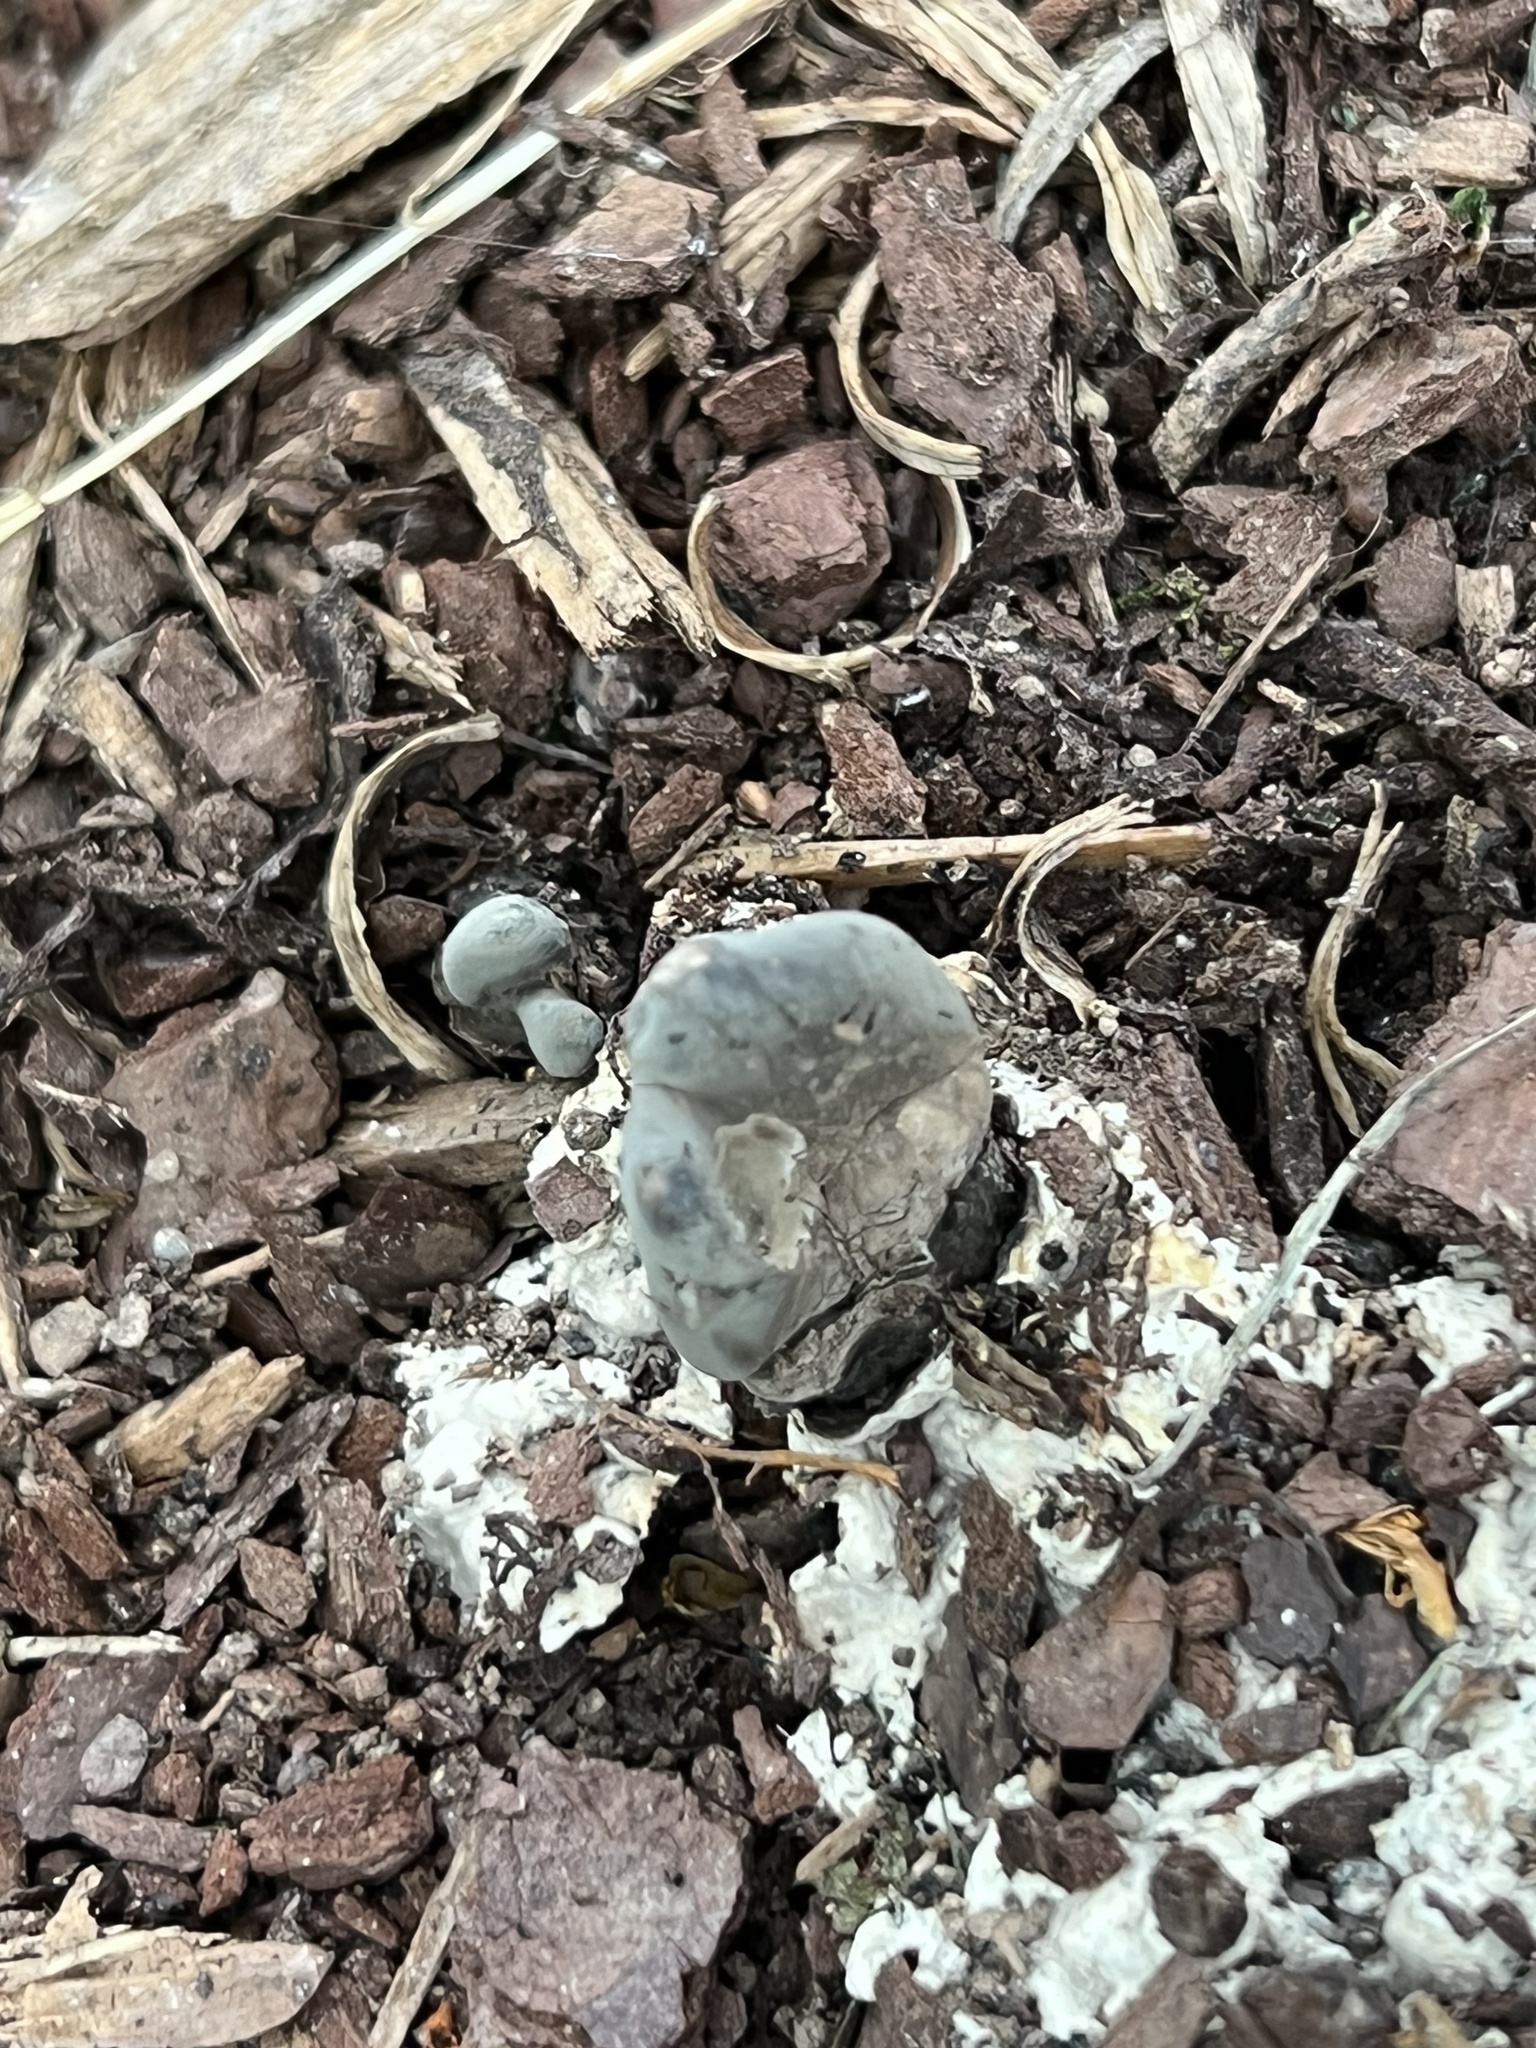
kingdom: Fungi
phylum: Ascomycota
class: Sordariomycetes
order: Xylariales
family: Xylariaceae
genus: Xylaria
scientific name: Xylaria polymorpha
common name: Dead man's fingers
